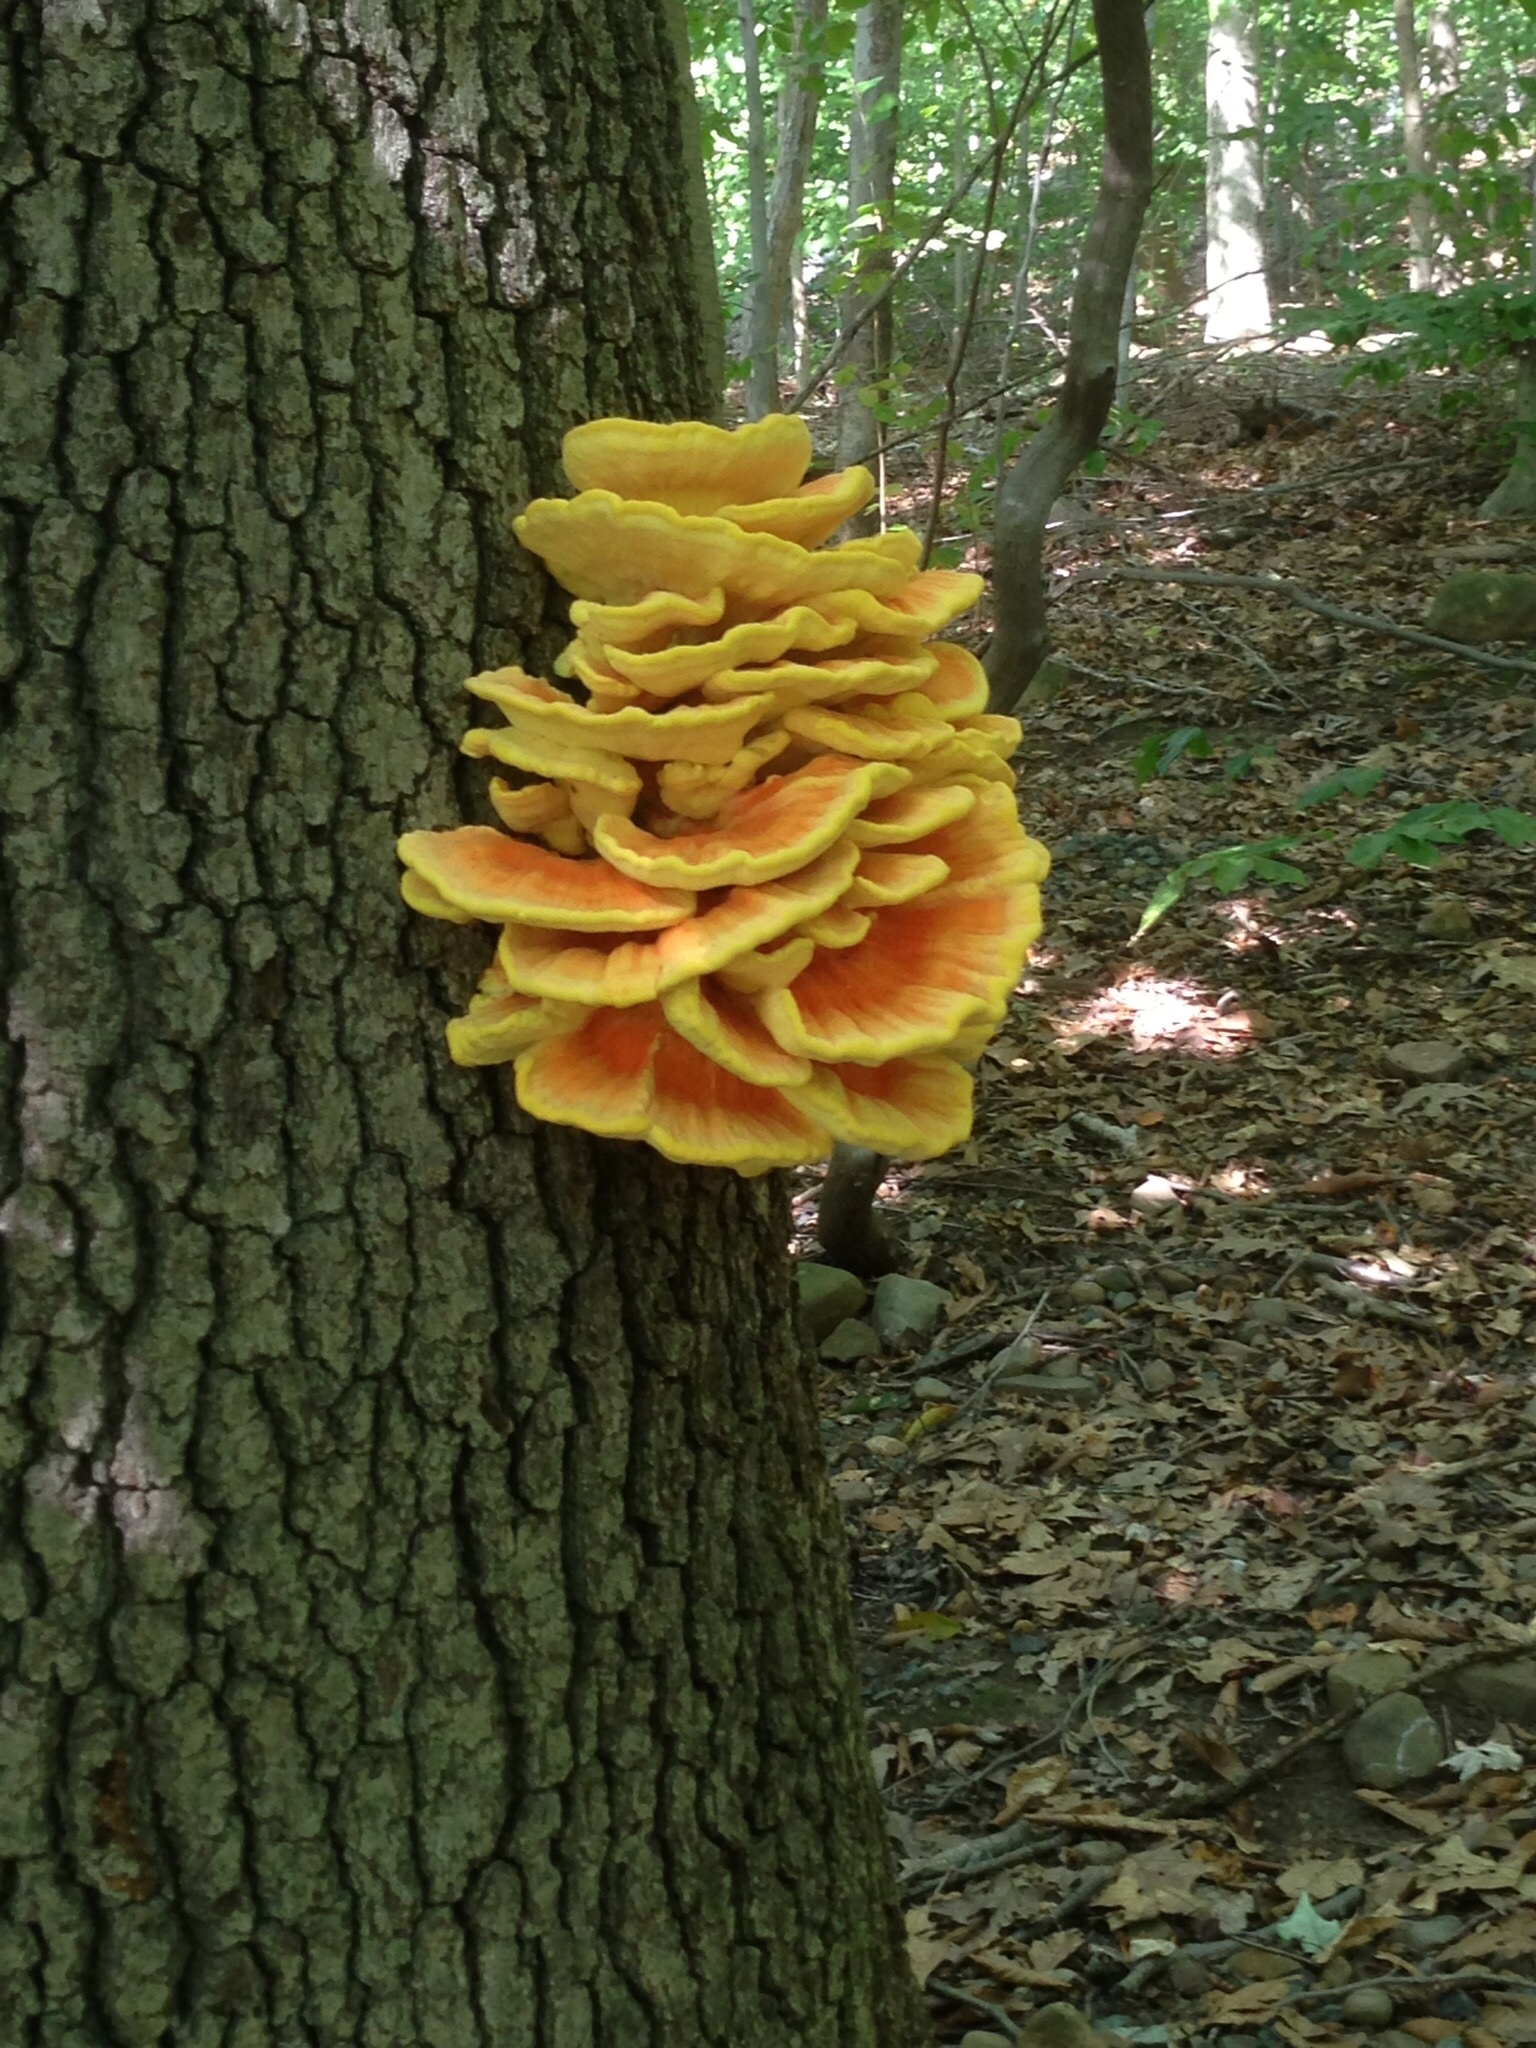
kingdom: Fungi
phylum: Basidiomycota
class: Agaricomycetes
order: Polyporales
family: Laetiporaceae
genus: Laetiporus
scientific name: Laetiporus sulphureus
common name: Chicken of the woods
